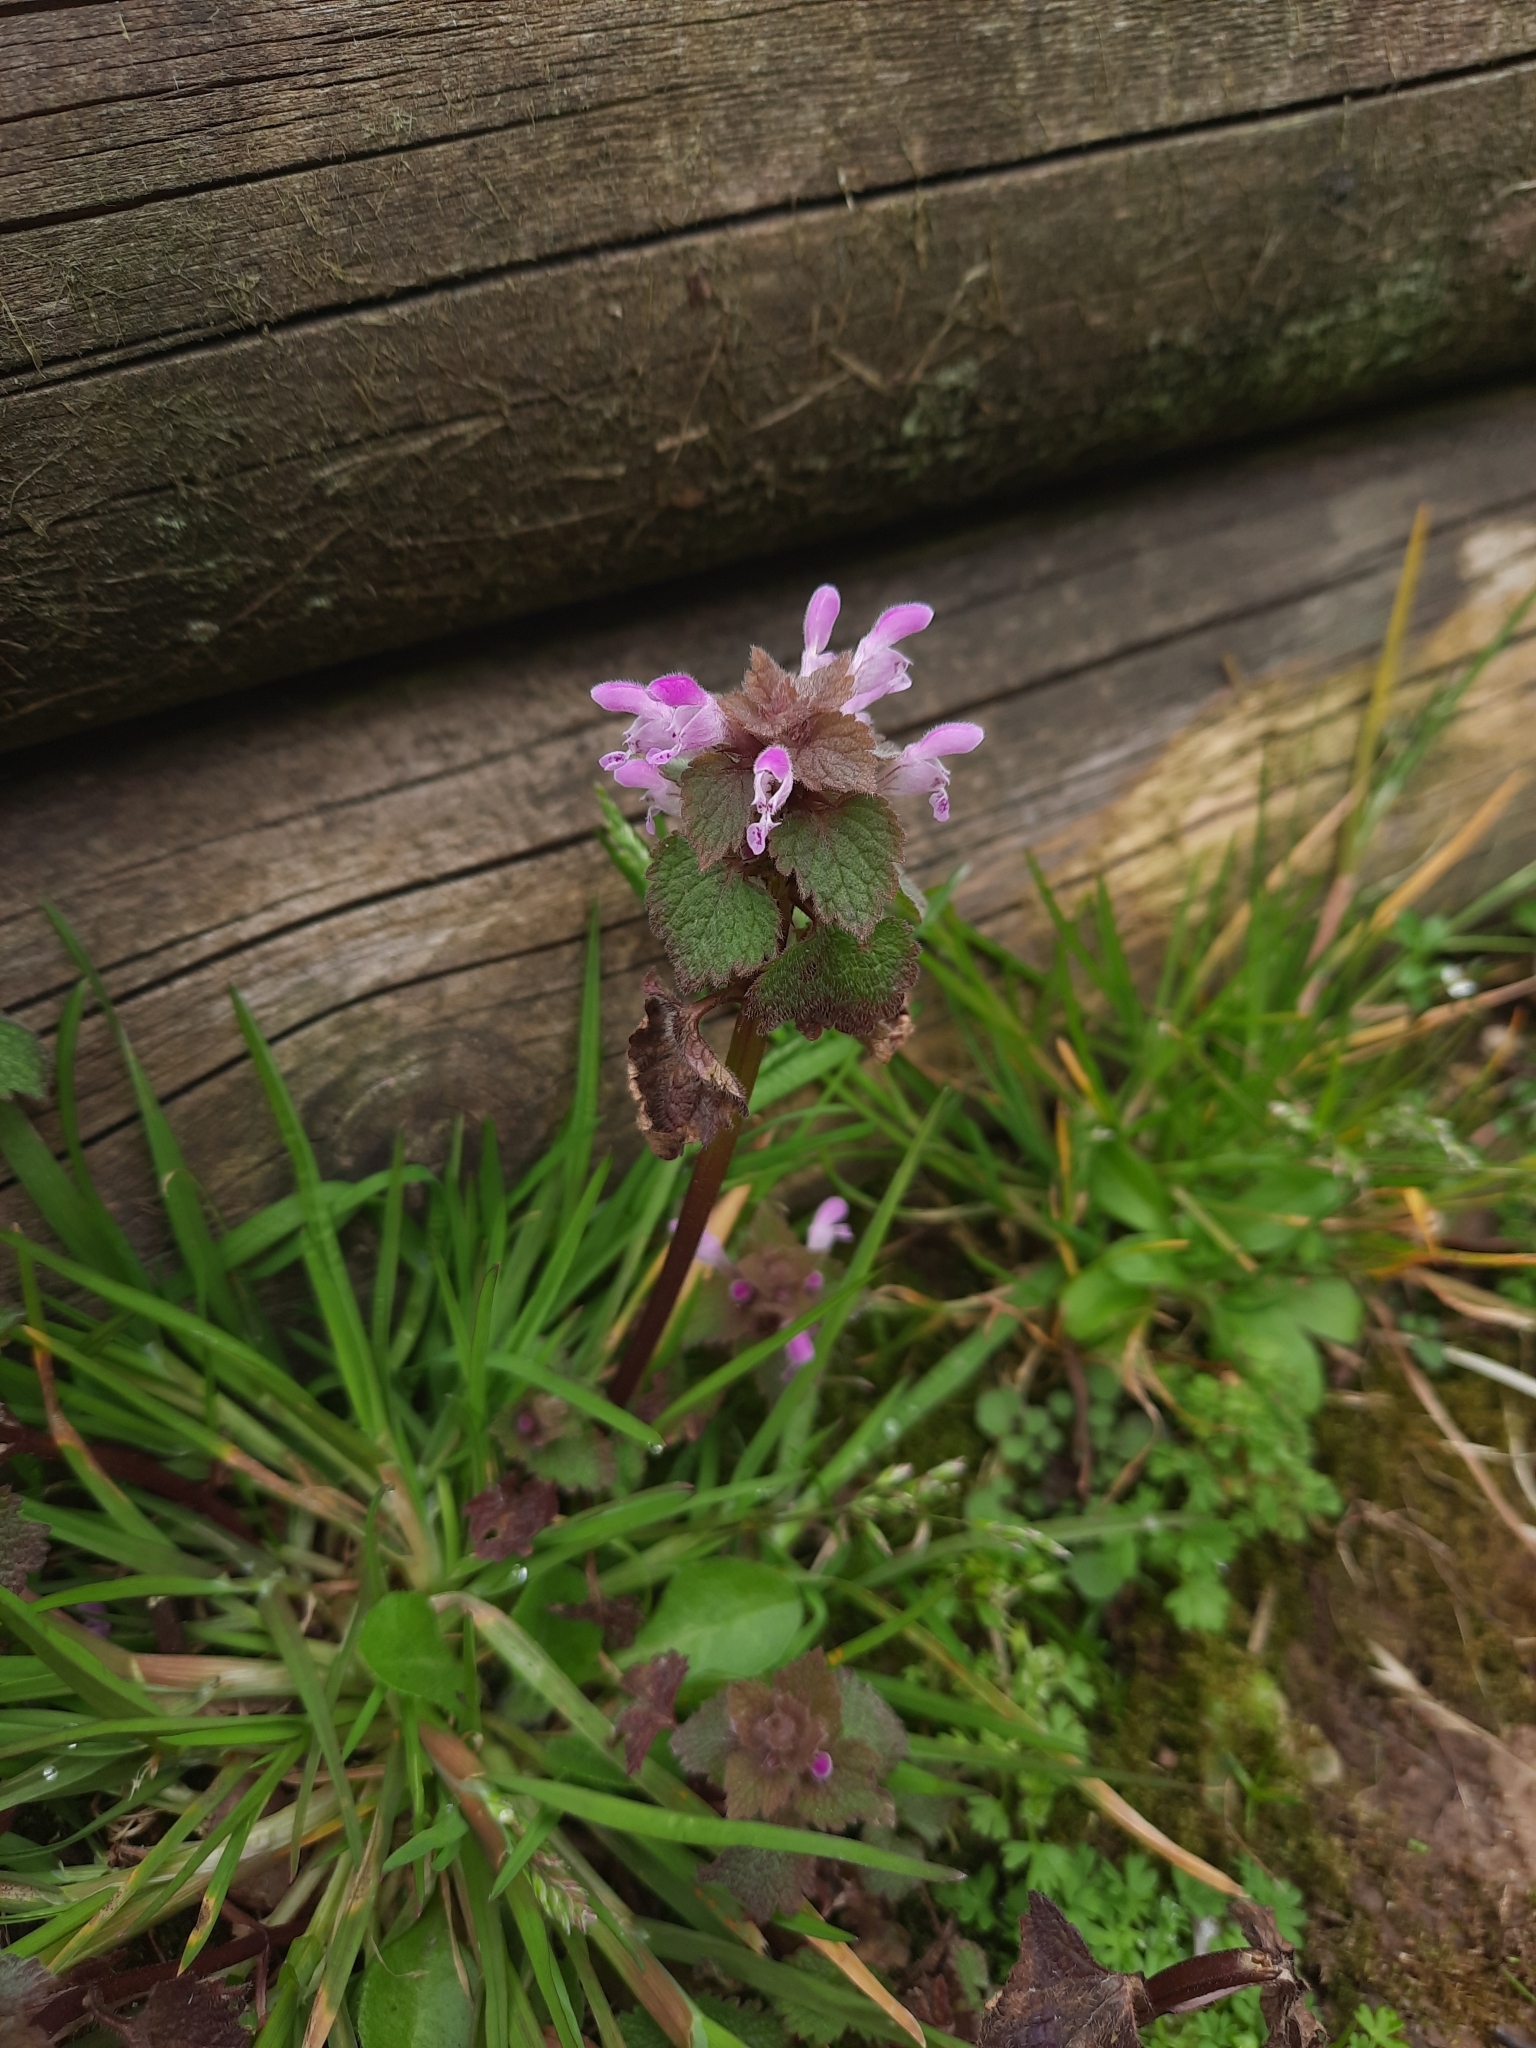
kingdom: Plantae
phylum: Tracheophyta
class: Magnoliopsida
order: Lamiales
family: Lamiaceae
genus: Lamium
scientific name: Lamium purpureum
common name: Red dead-nettle
